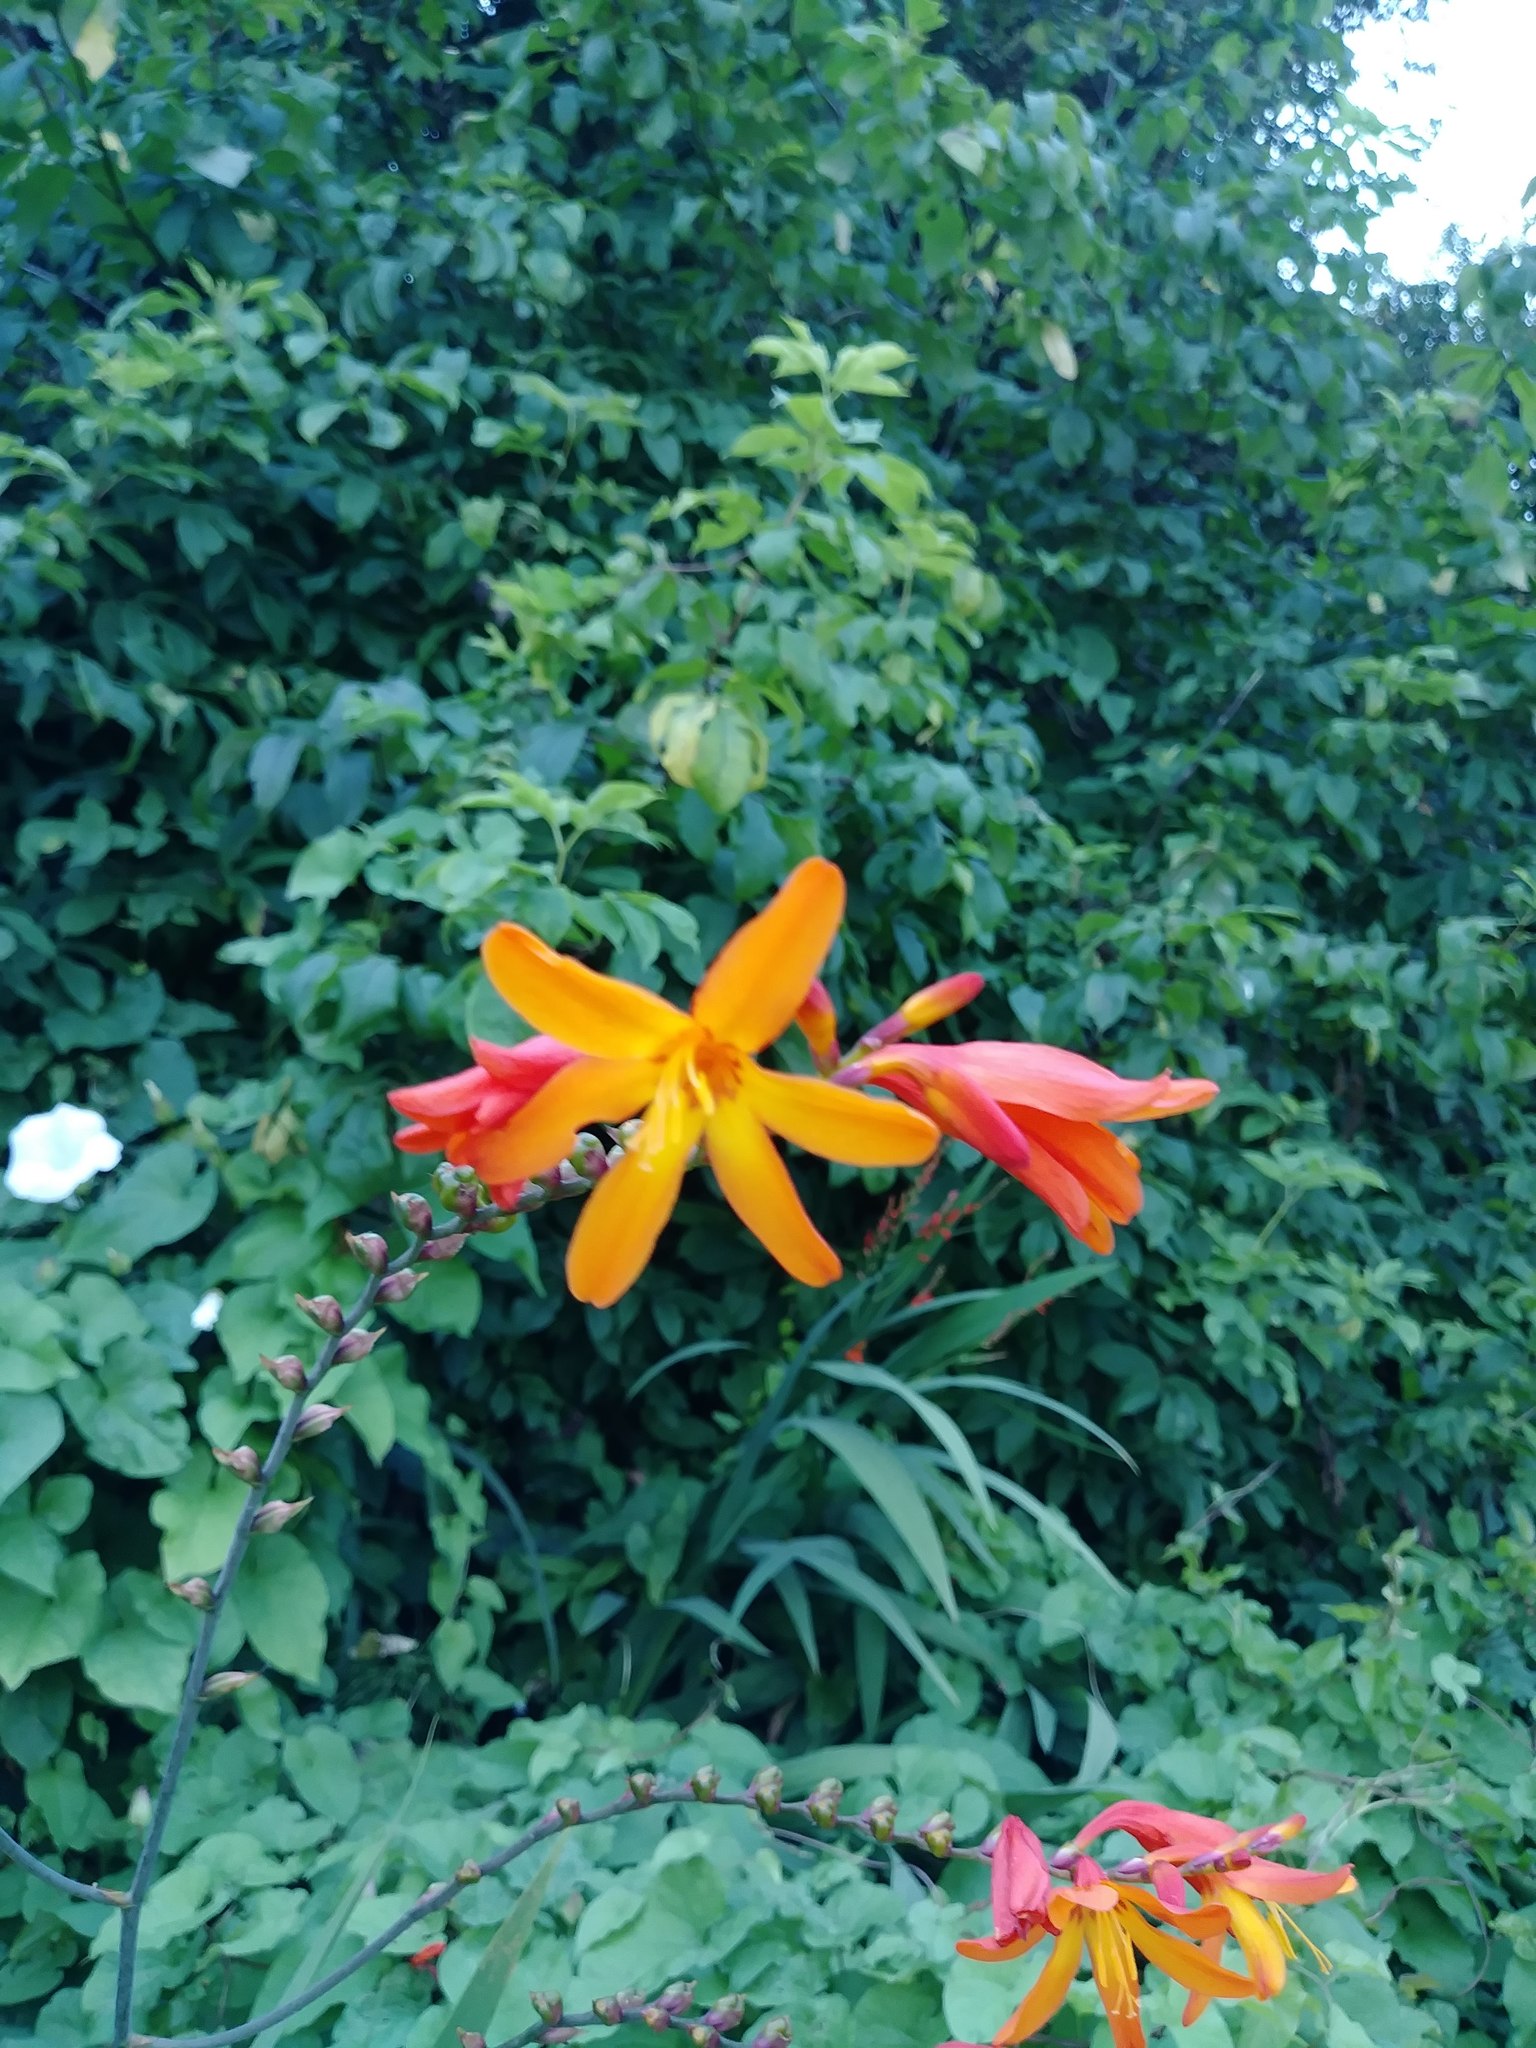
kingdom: Plantae
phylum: Tracheophyta
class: Liliopsida
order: Asparagales
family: Iridaceae
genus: Crocosmia
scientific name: Crocosmia crocosmiiflora
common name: Montbretia
